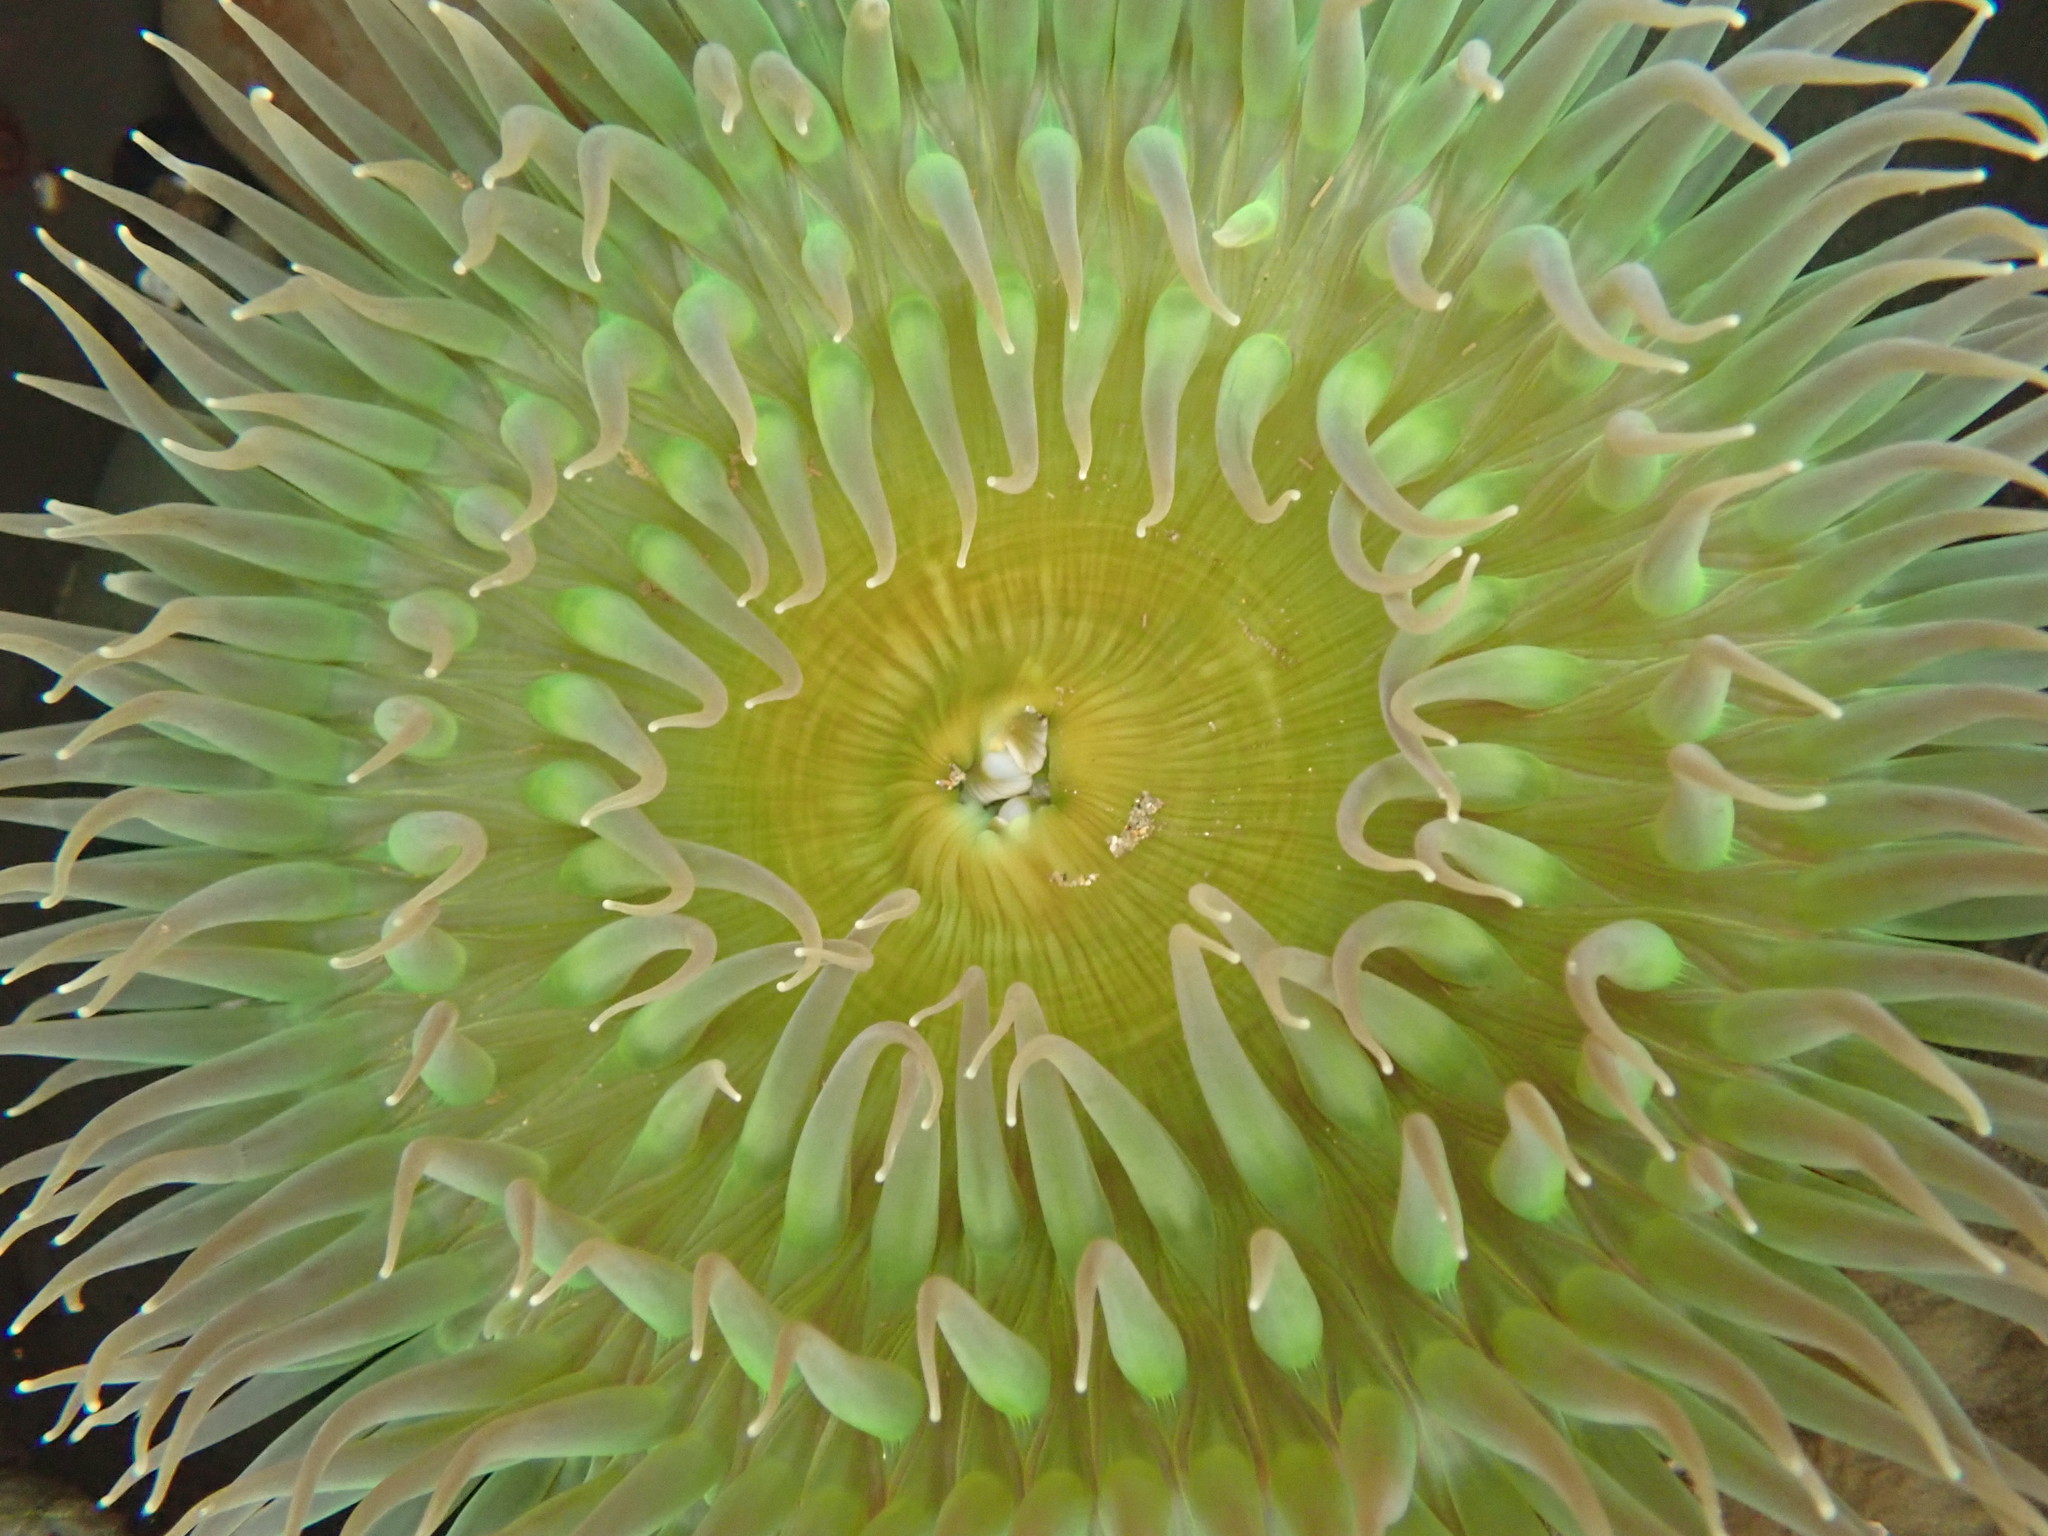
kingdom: Animalia
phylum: Cnidaria
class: Anthozoa
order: Actiniaria
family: Actiniidae
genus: Anthopleura
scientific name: Anthopleura xanthogrammica
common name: Giant green anemone
